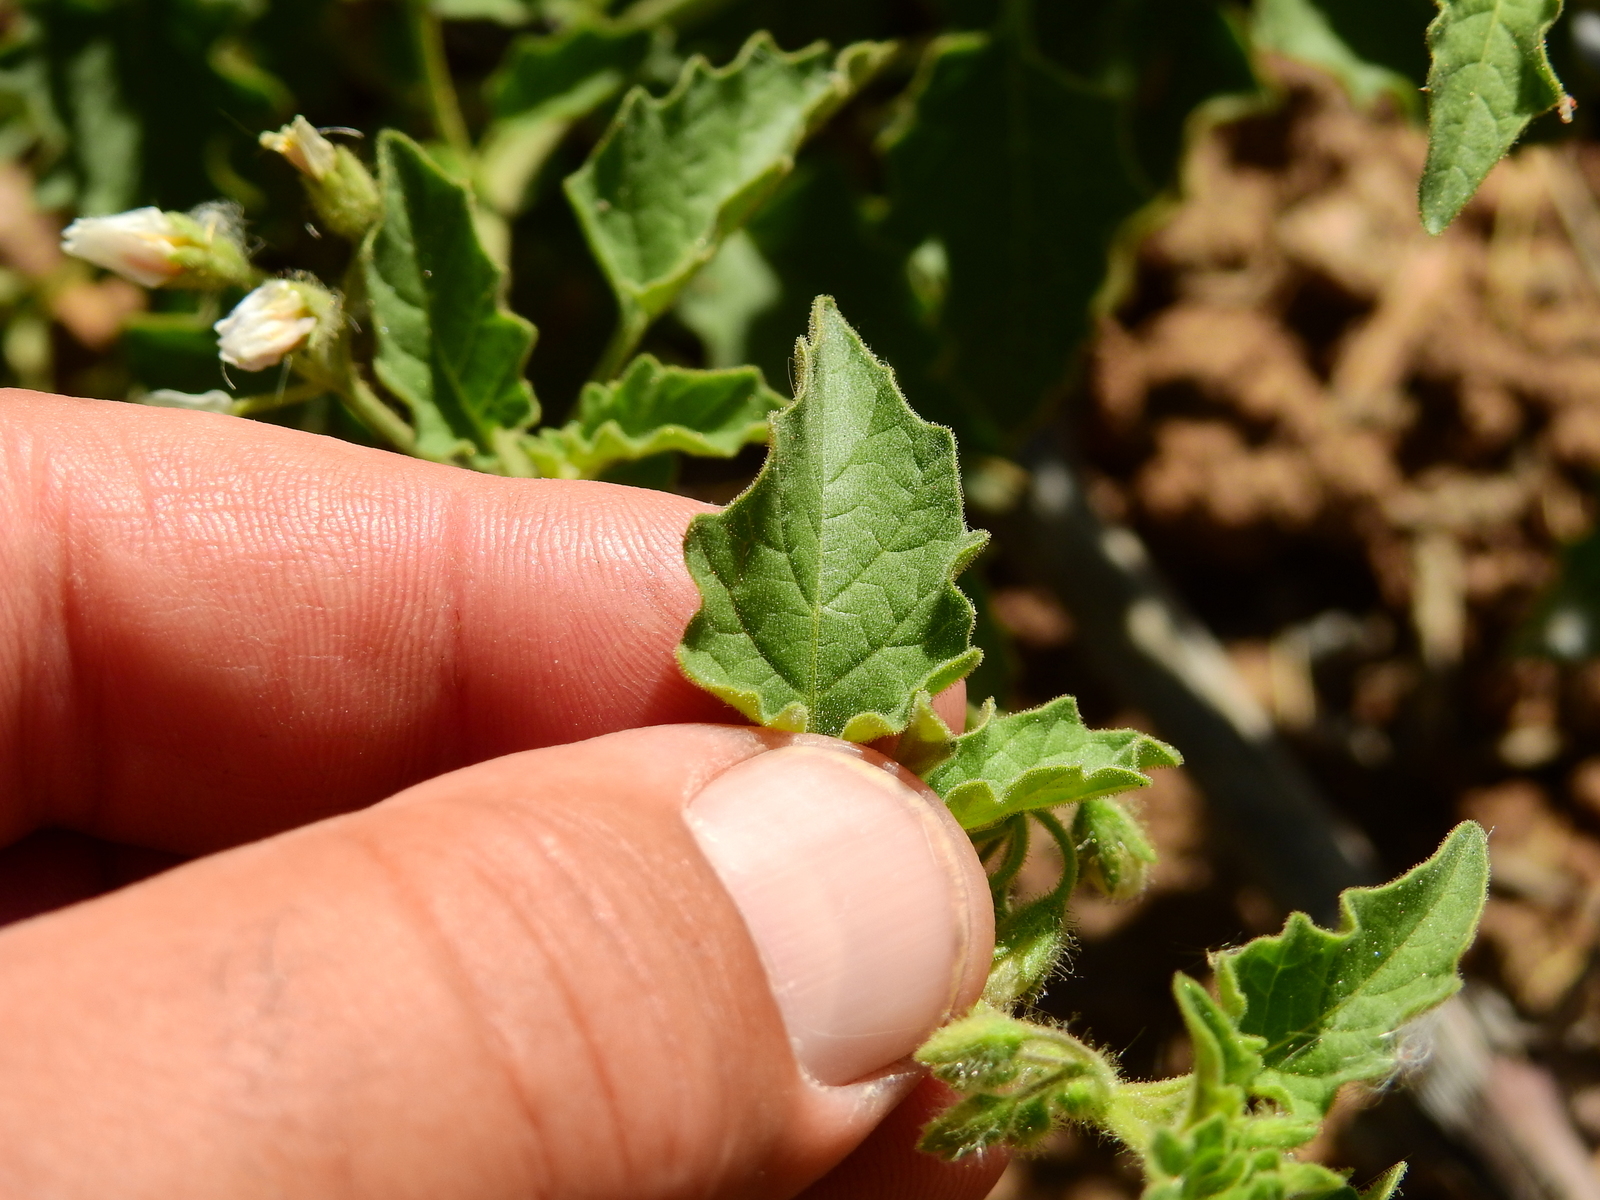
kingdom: Plantae
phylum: Tracheophyta
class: Magnoliopsida
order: Solanales
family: Solanaceae
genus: Solanum
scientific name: Solanum tweedianum
